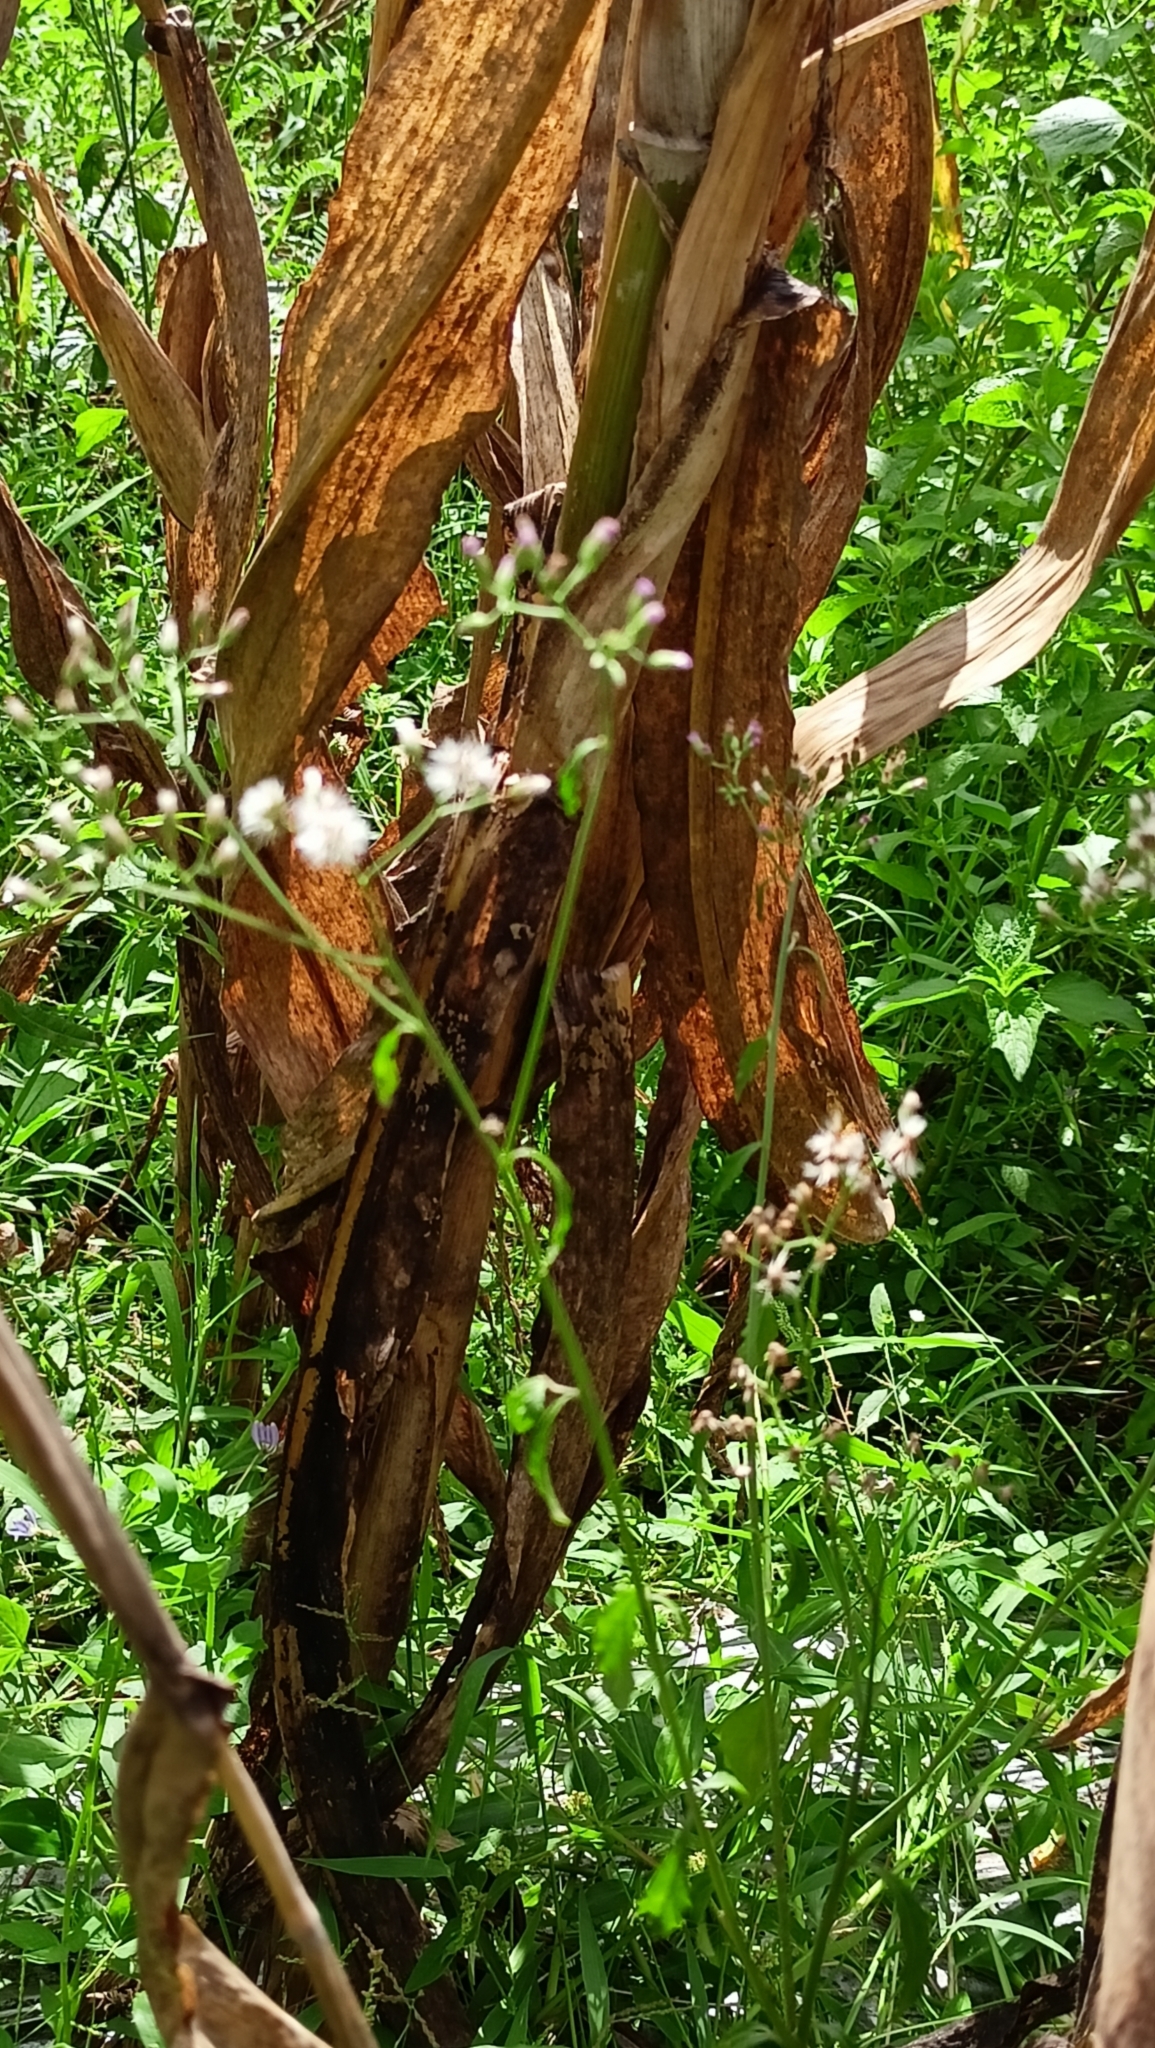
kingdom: Plantae
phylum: Tracheophyta
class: Magnoliopsida
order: Asterales
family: Asteraceae
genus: Cyanthillium
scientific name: Cyanthillium cinereum
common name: Little ironweed
